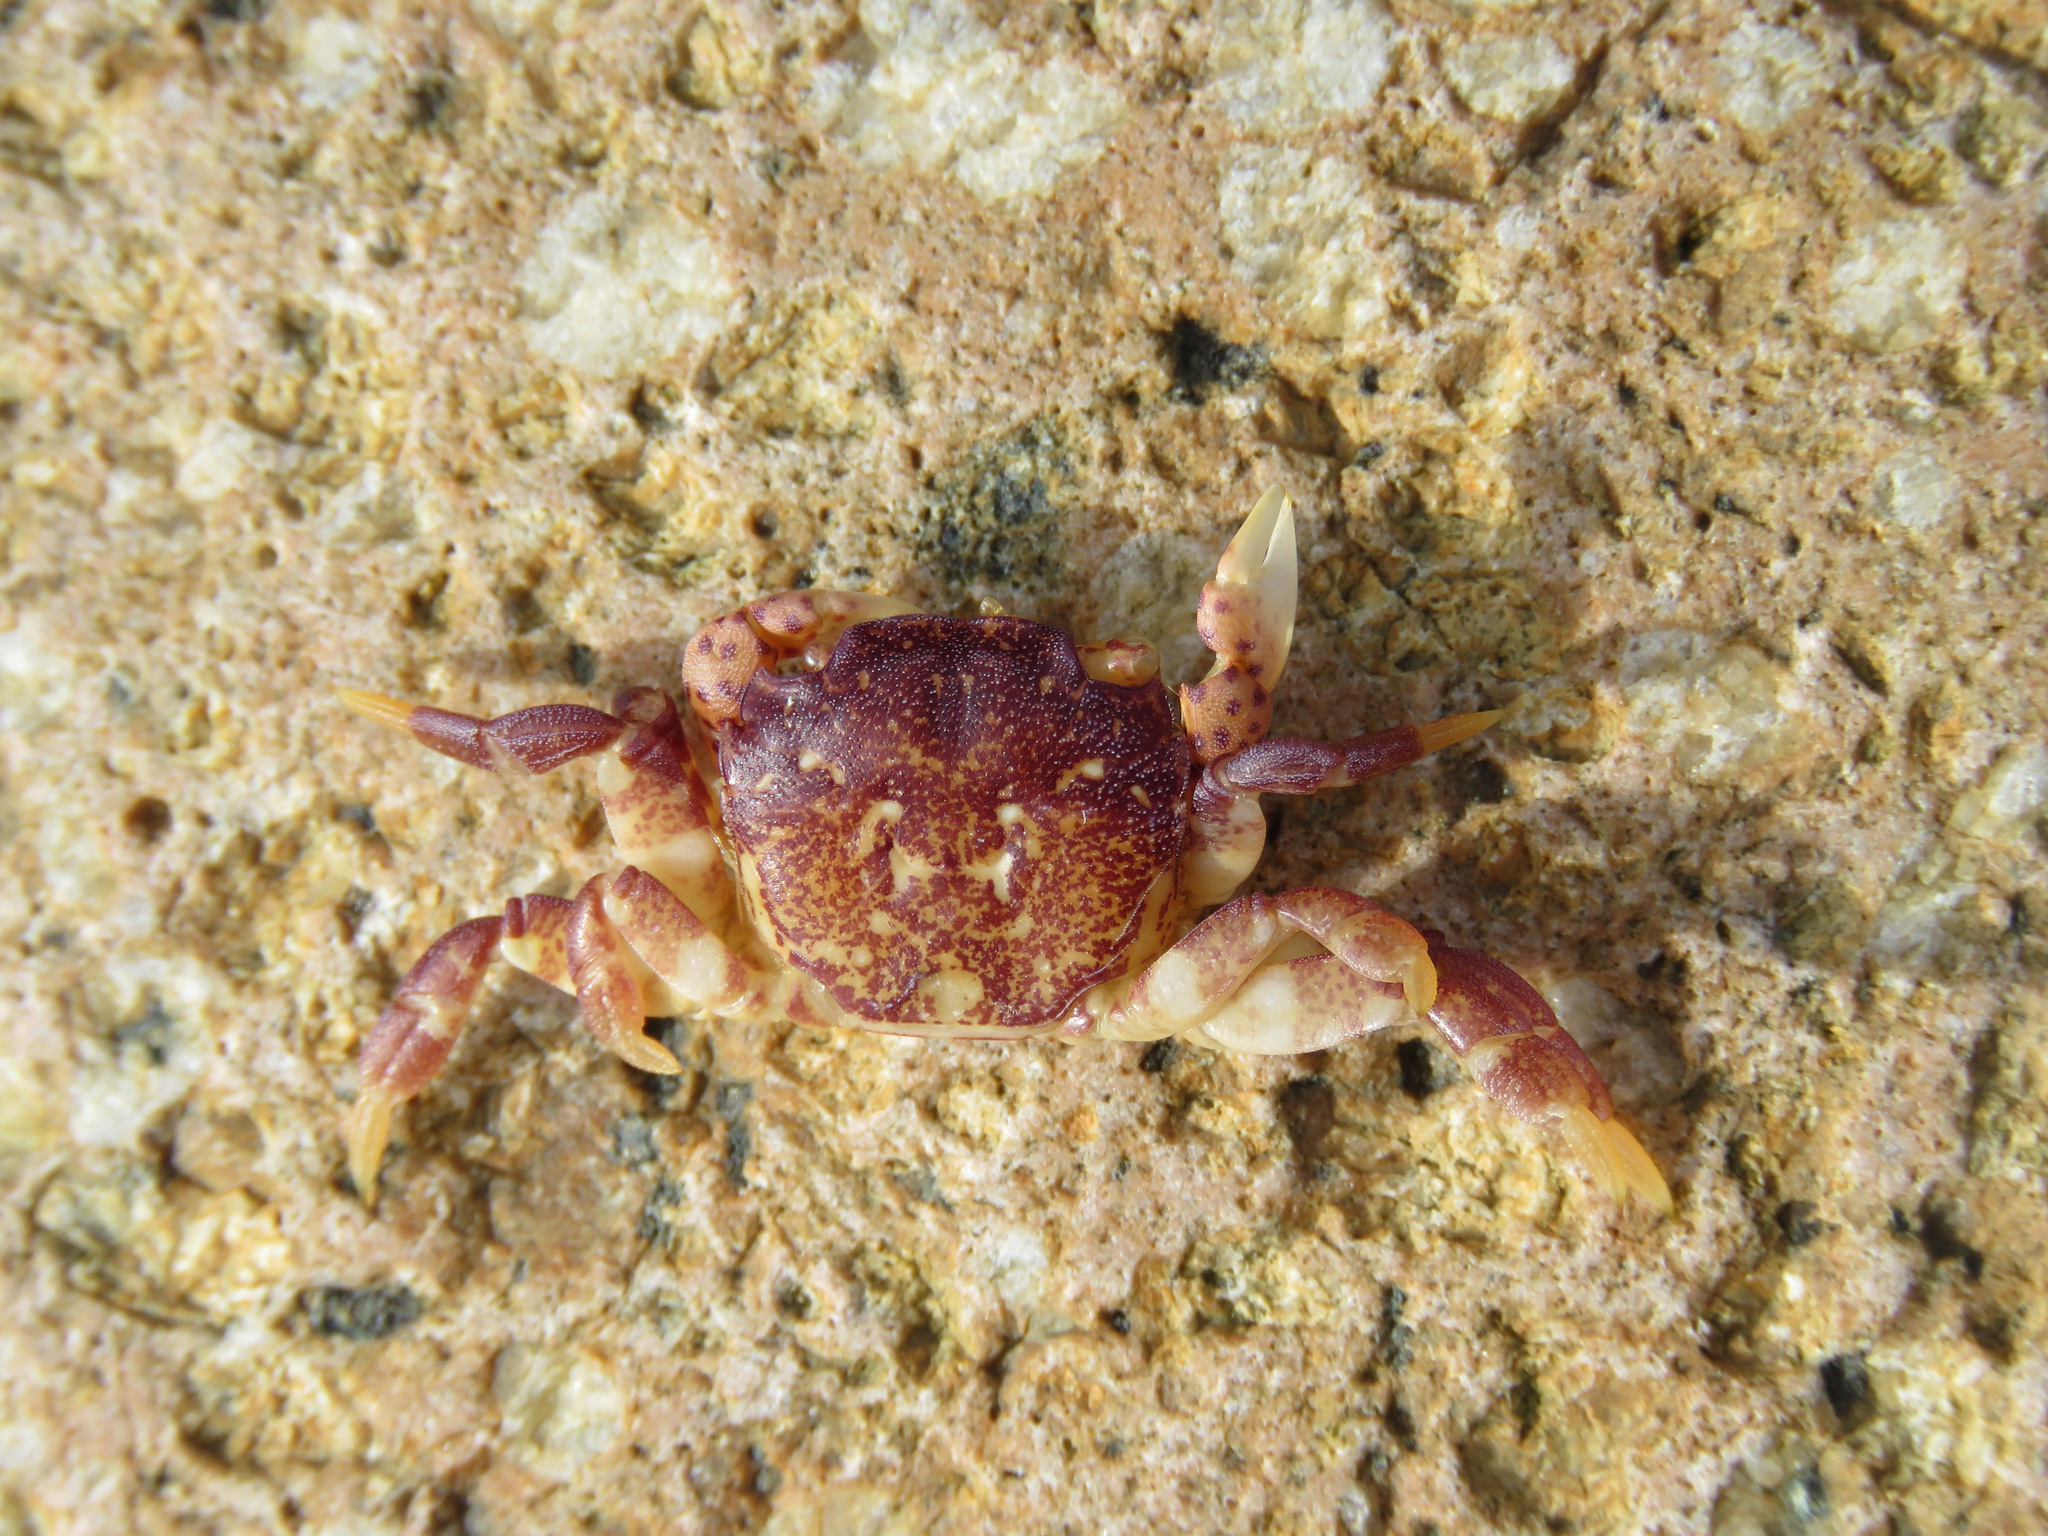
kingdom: Animalia
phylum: Arthropoda
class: Malacostraca
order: Decapoda
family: Varunidae
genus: Hemigrapsus
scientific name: Hemigrapsus nudus
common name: Purple shore crab
